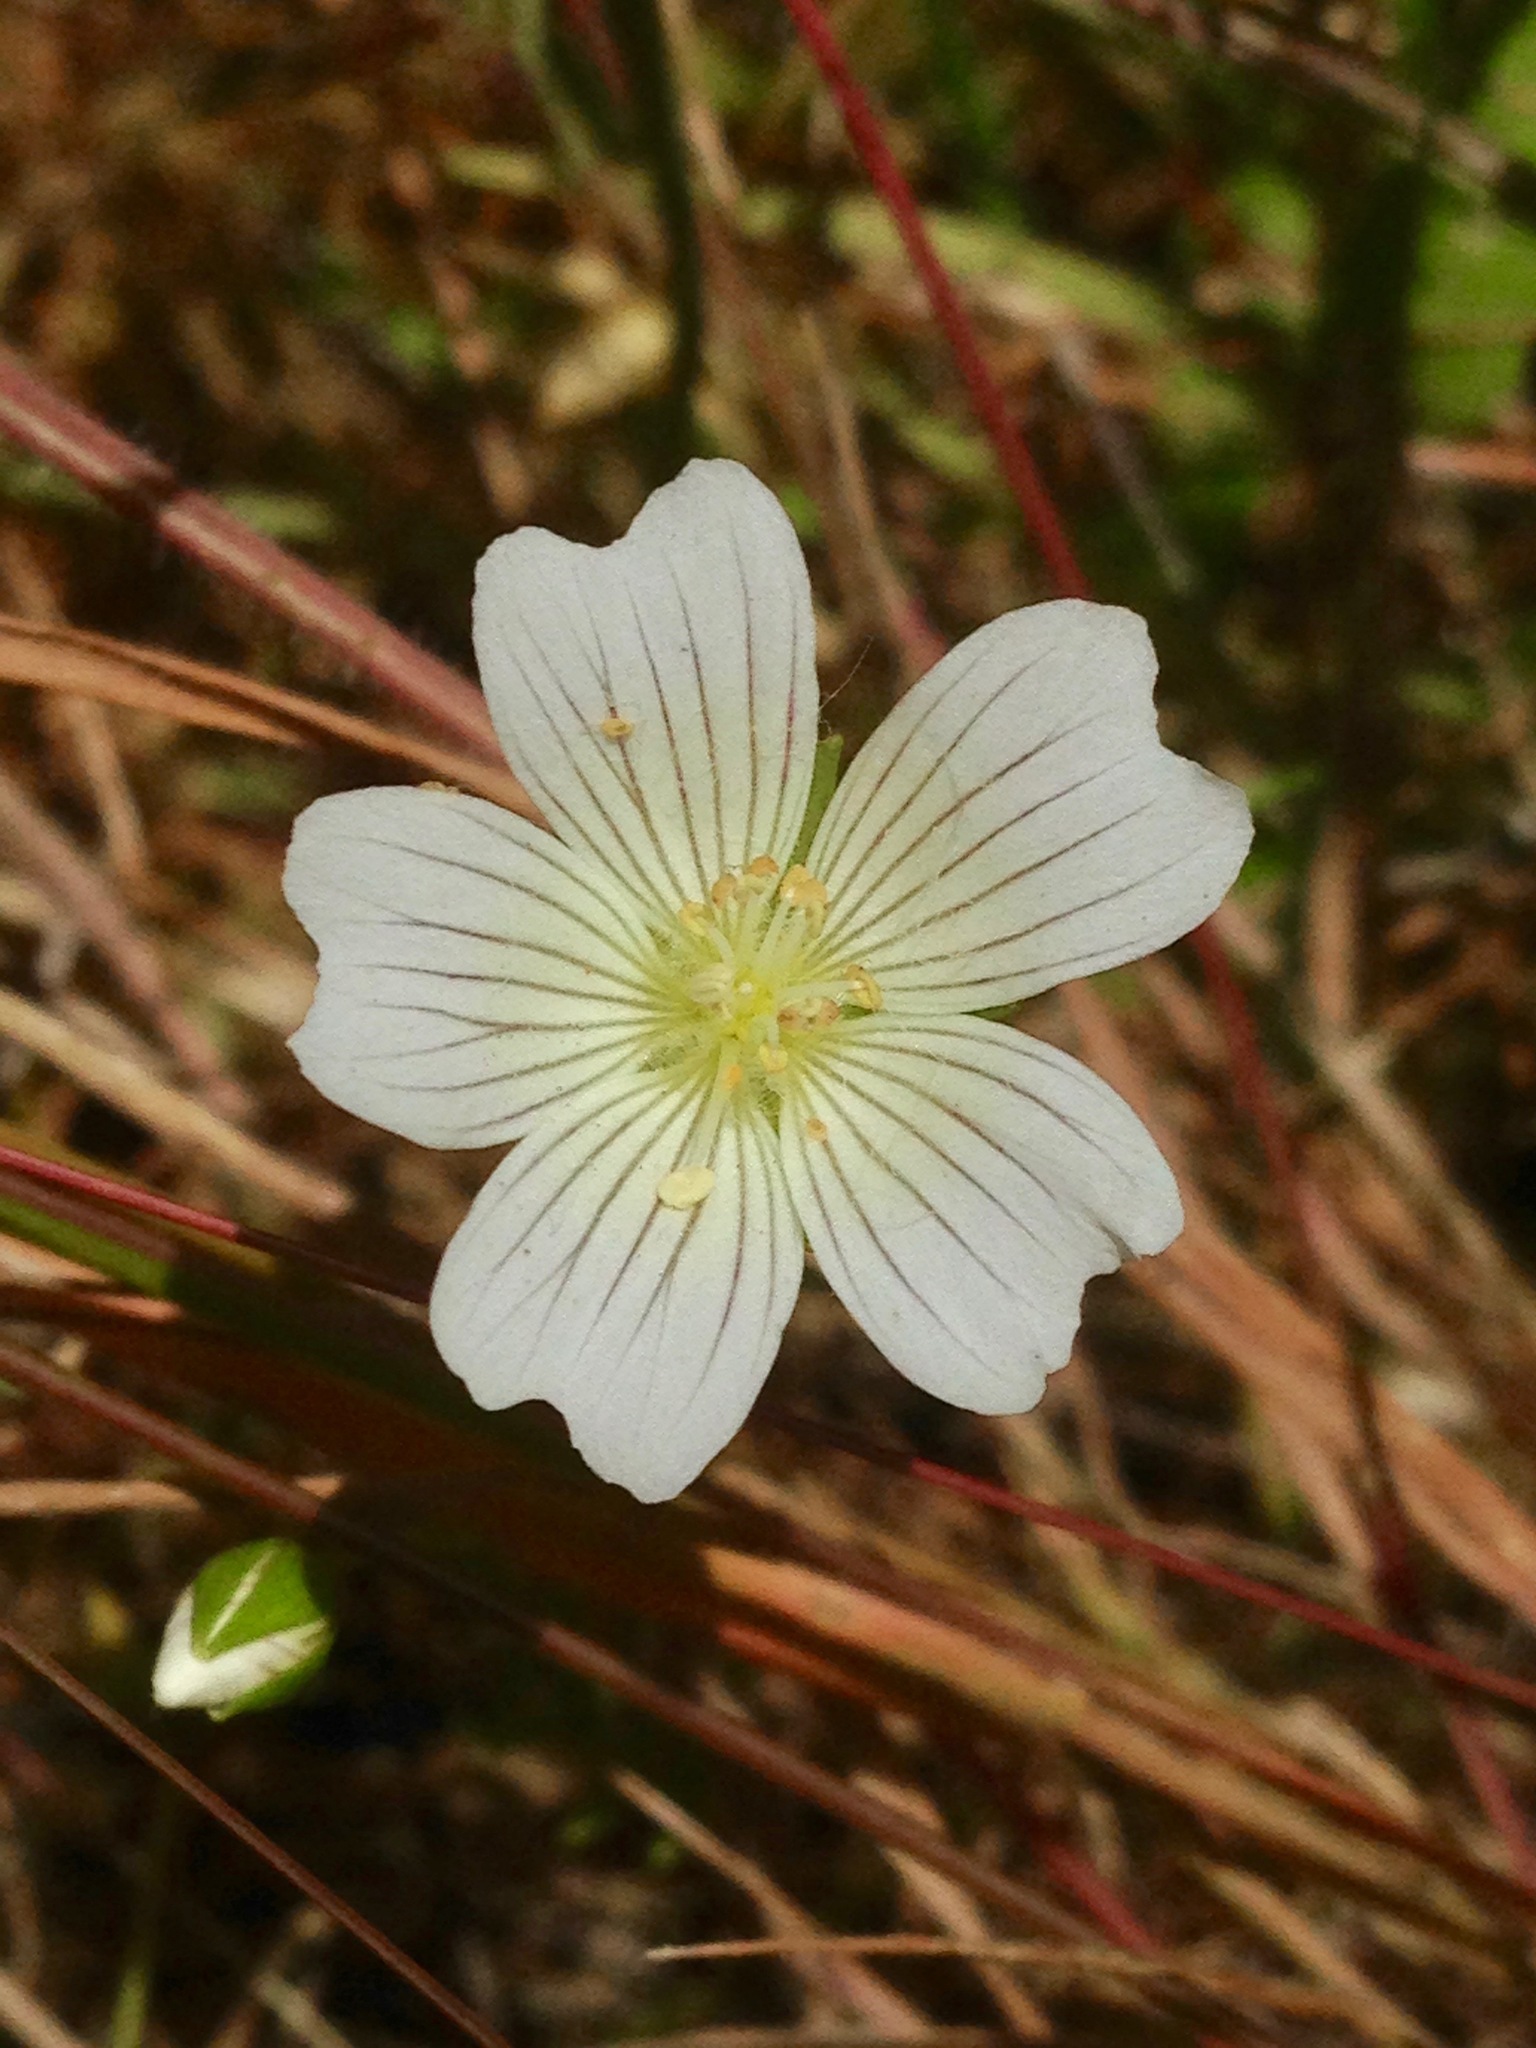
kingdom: Plantae
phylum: Tracheophyta
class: Magnoliopsida
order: Brassicales
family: Limnanthaceae
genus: Limnanthes
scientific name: Limnanthes douglasii
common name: Meadow-foam
